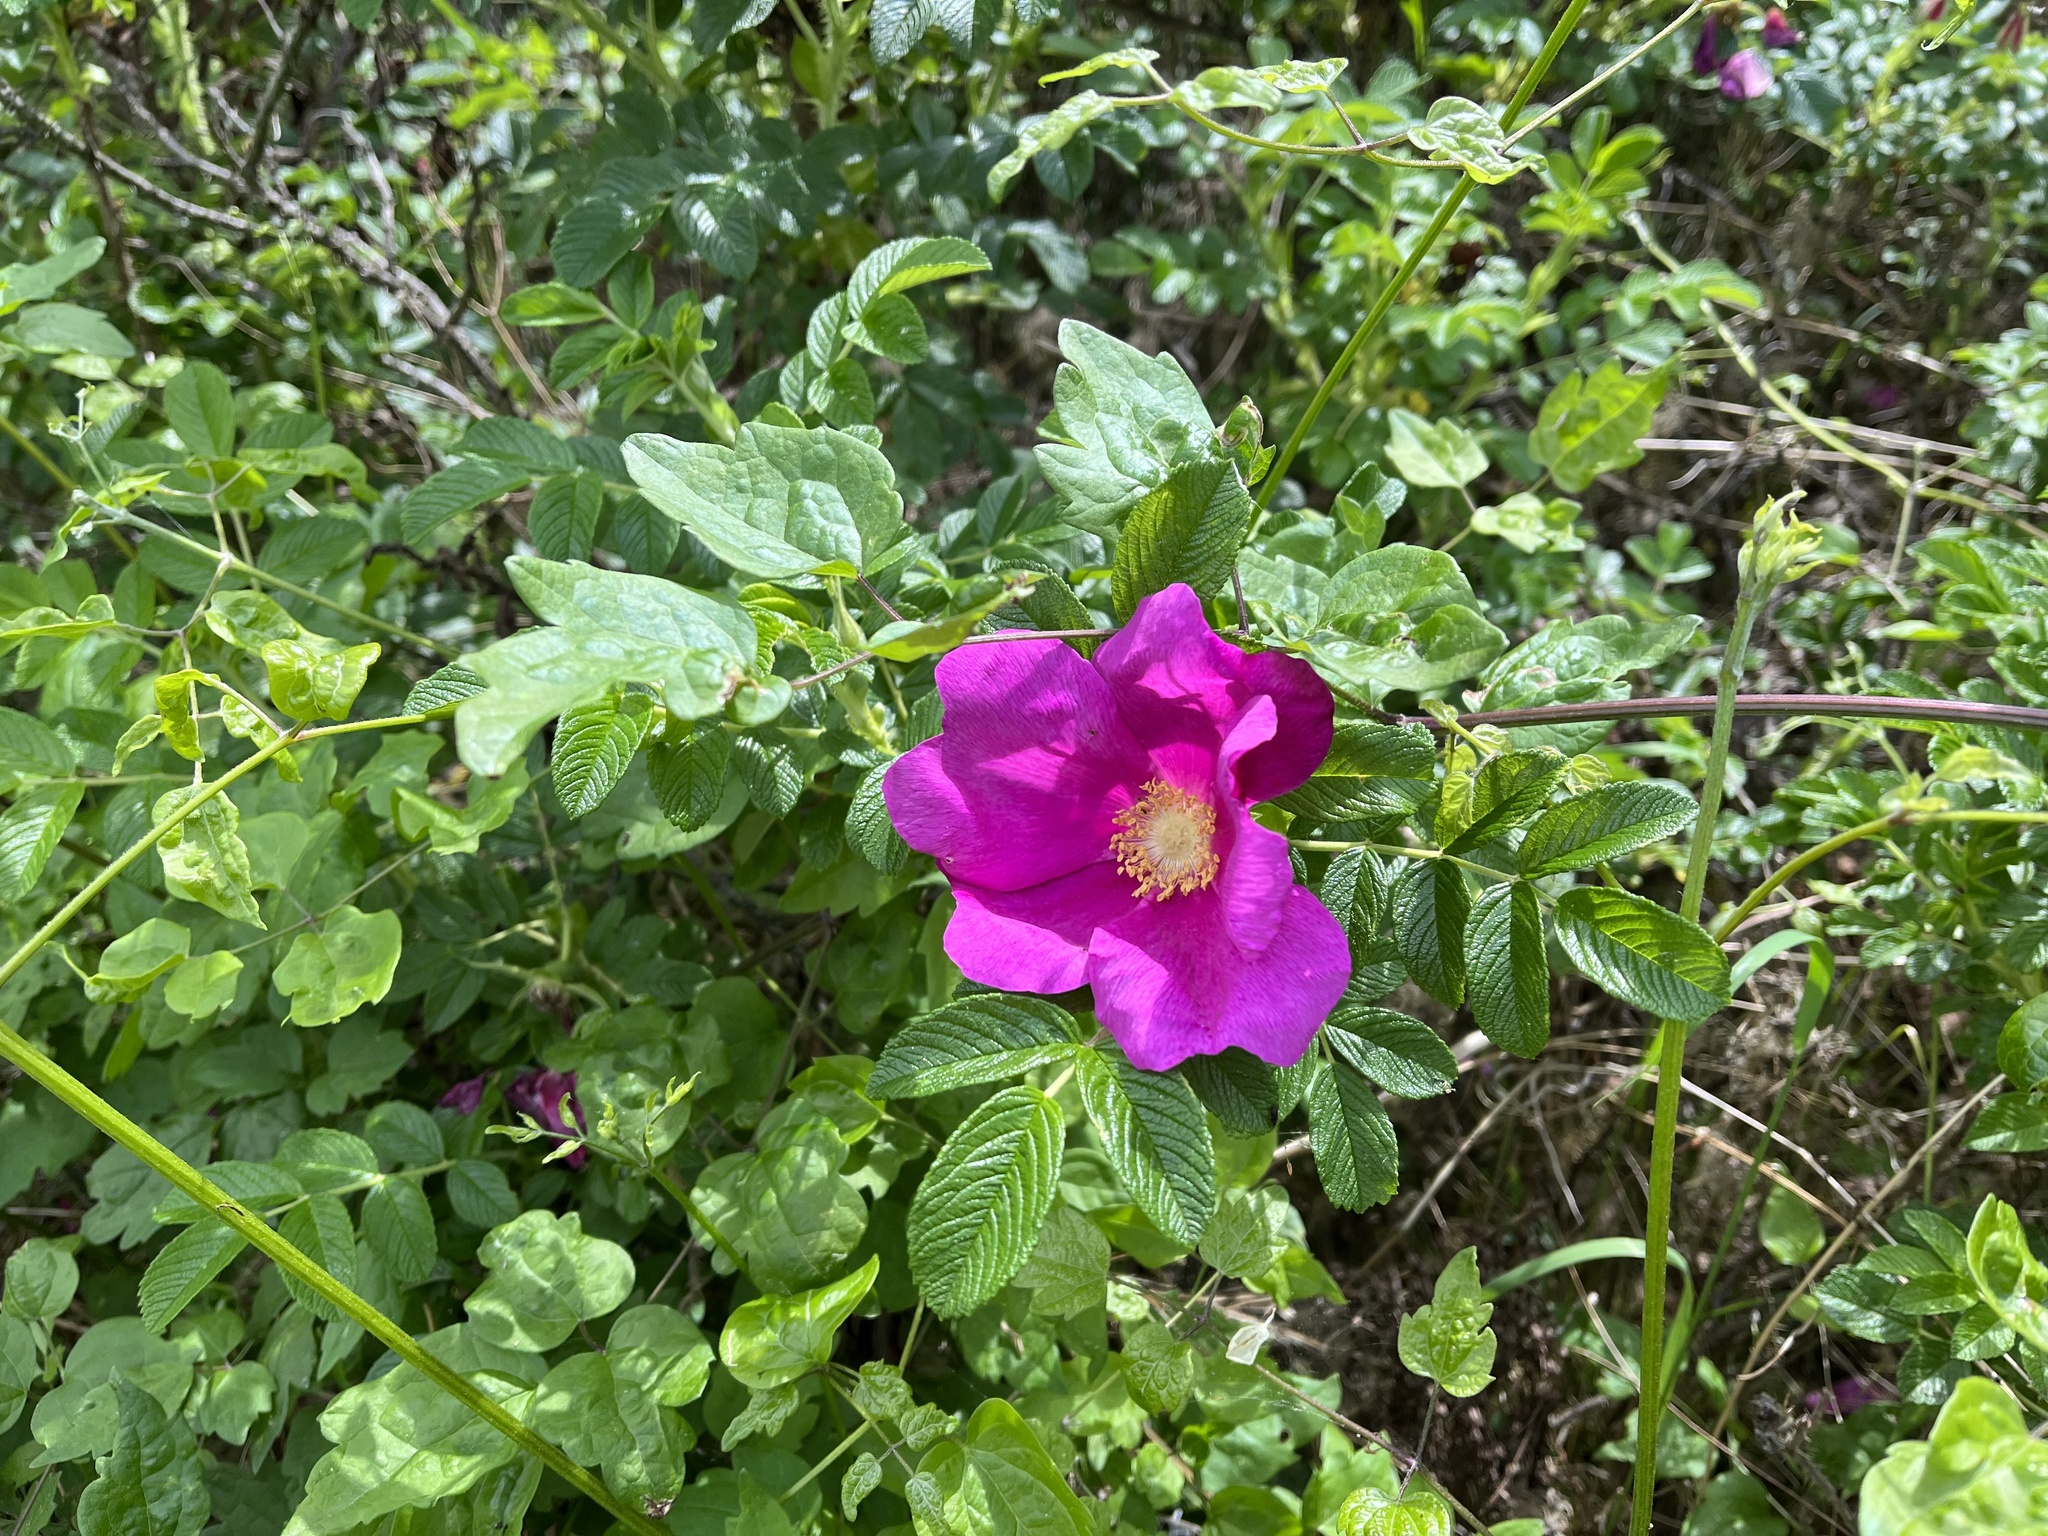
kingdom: Plantae
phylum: Tracheophyta
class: Magnoliopsida
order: Rosales
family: Rosaceae
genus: Rosa
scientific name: Rosa rugosa
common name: Japanese rose
